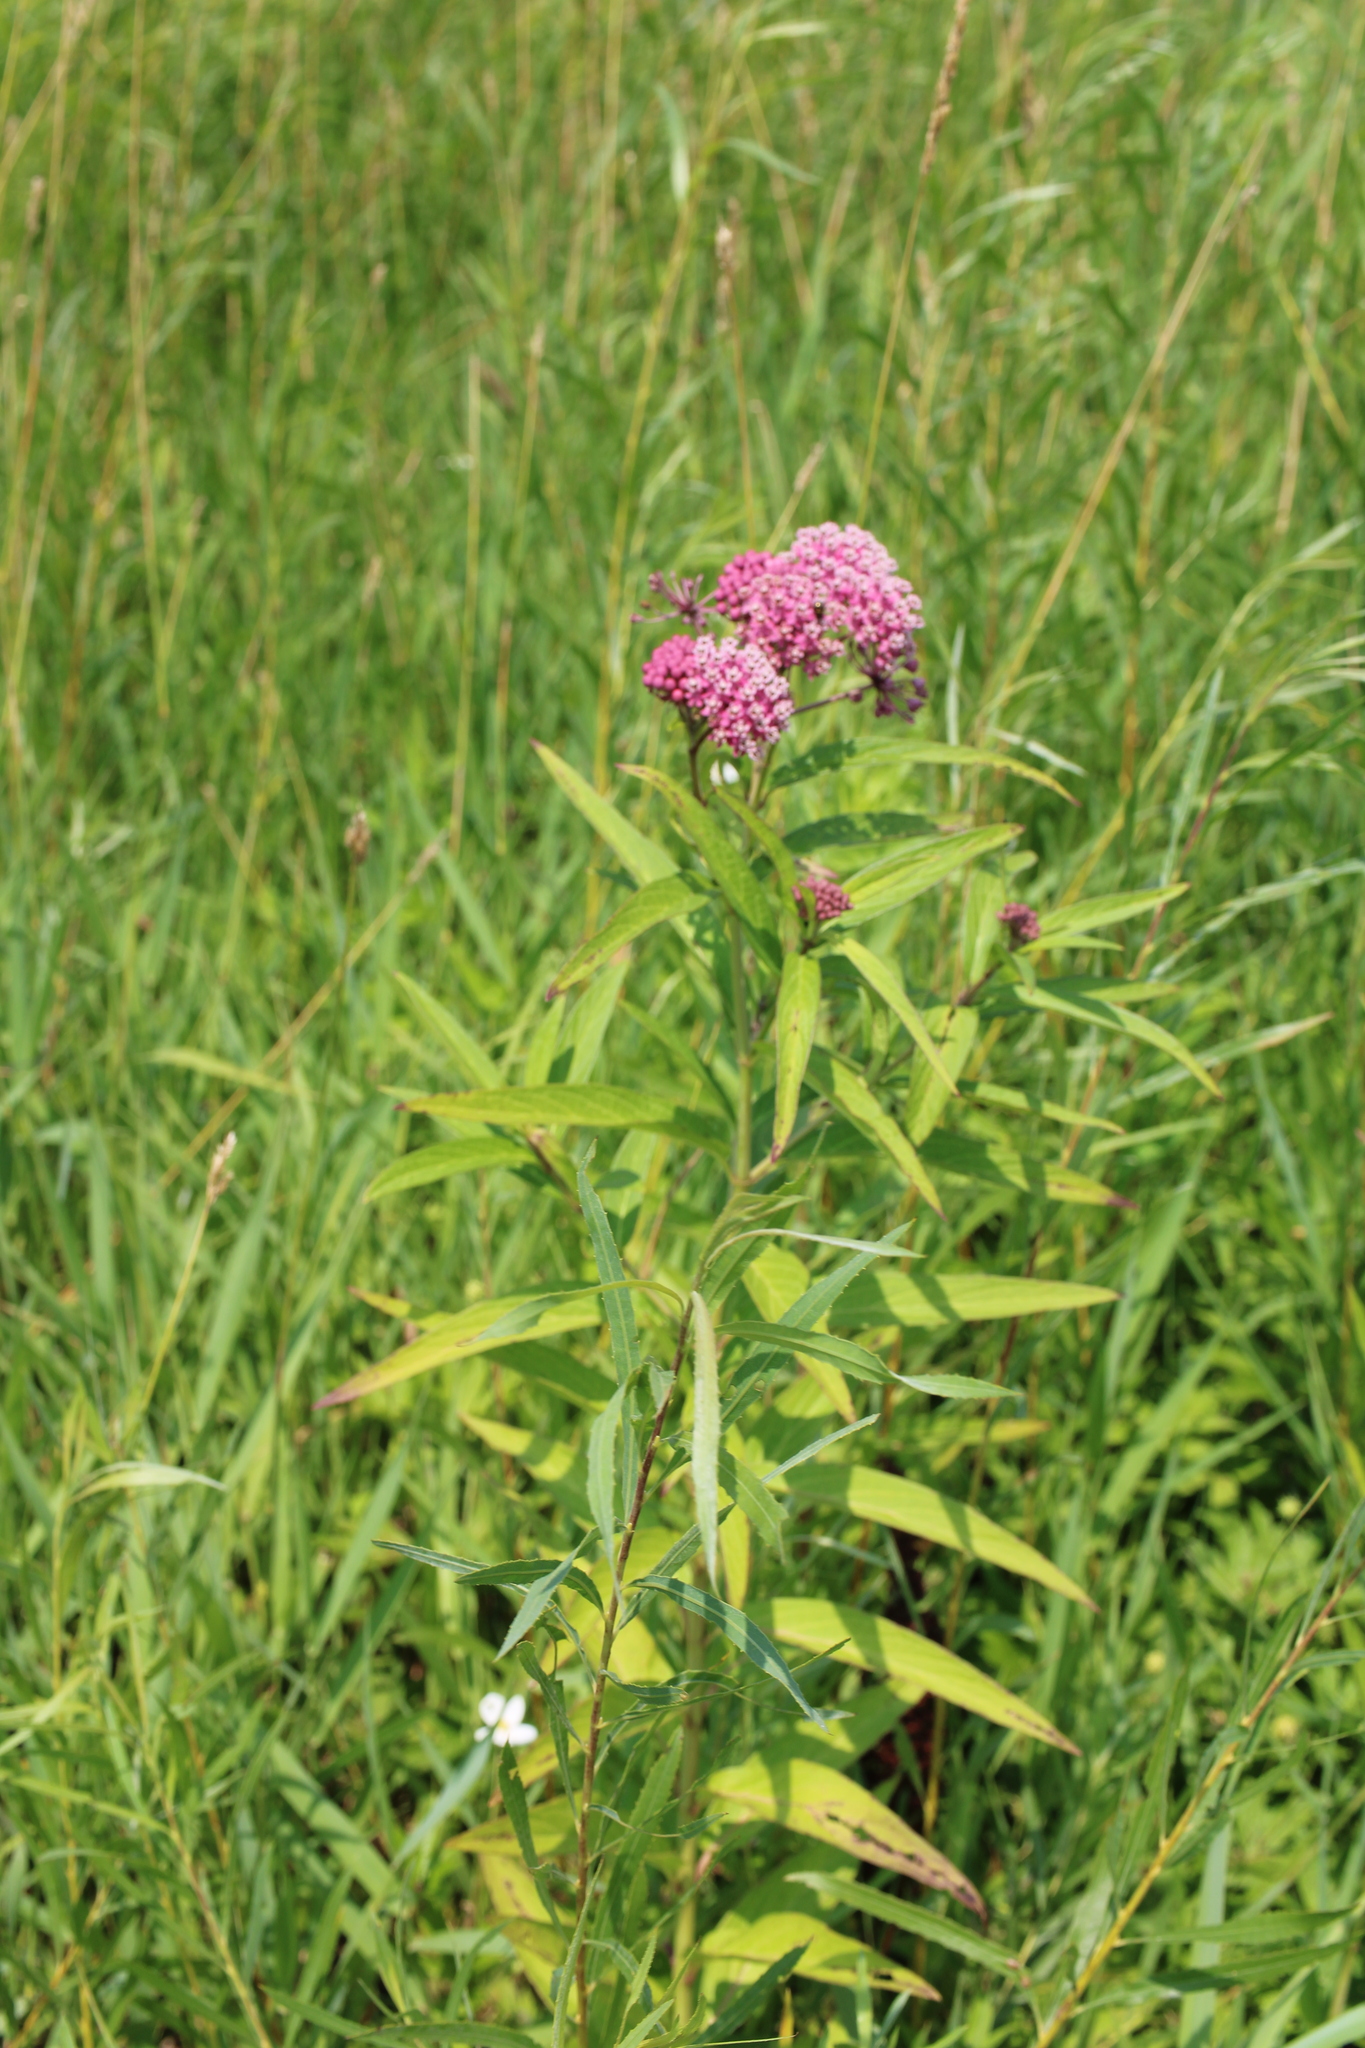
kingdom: Plantae
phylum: Tracheophyta
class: Magnoliopsida
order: Gentianales
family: Apocynaceae
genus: Asclepias
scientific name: Asclepias incarnata
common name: Swamp milkweed
